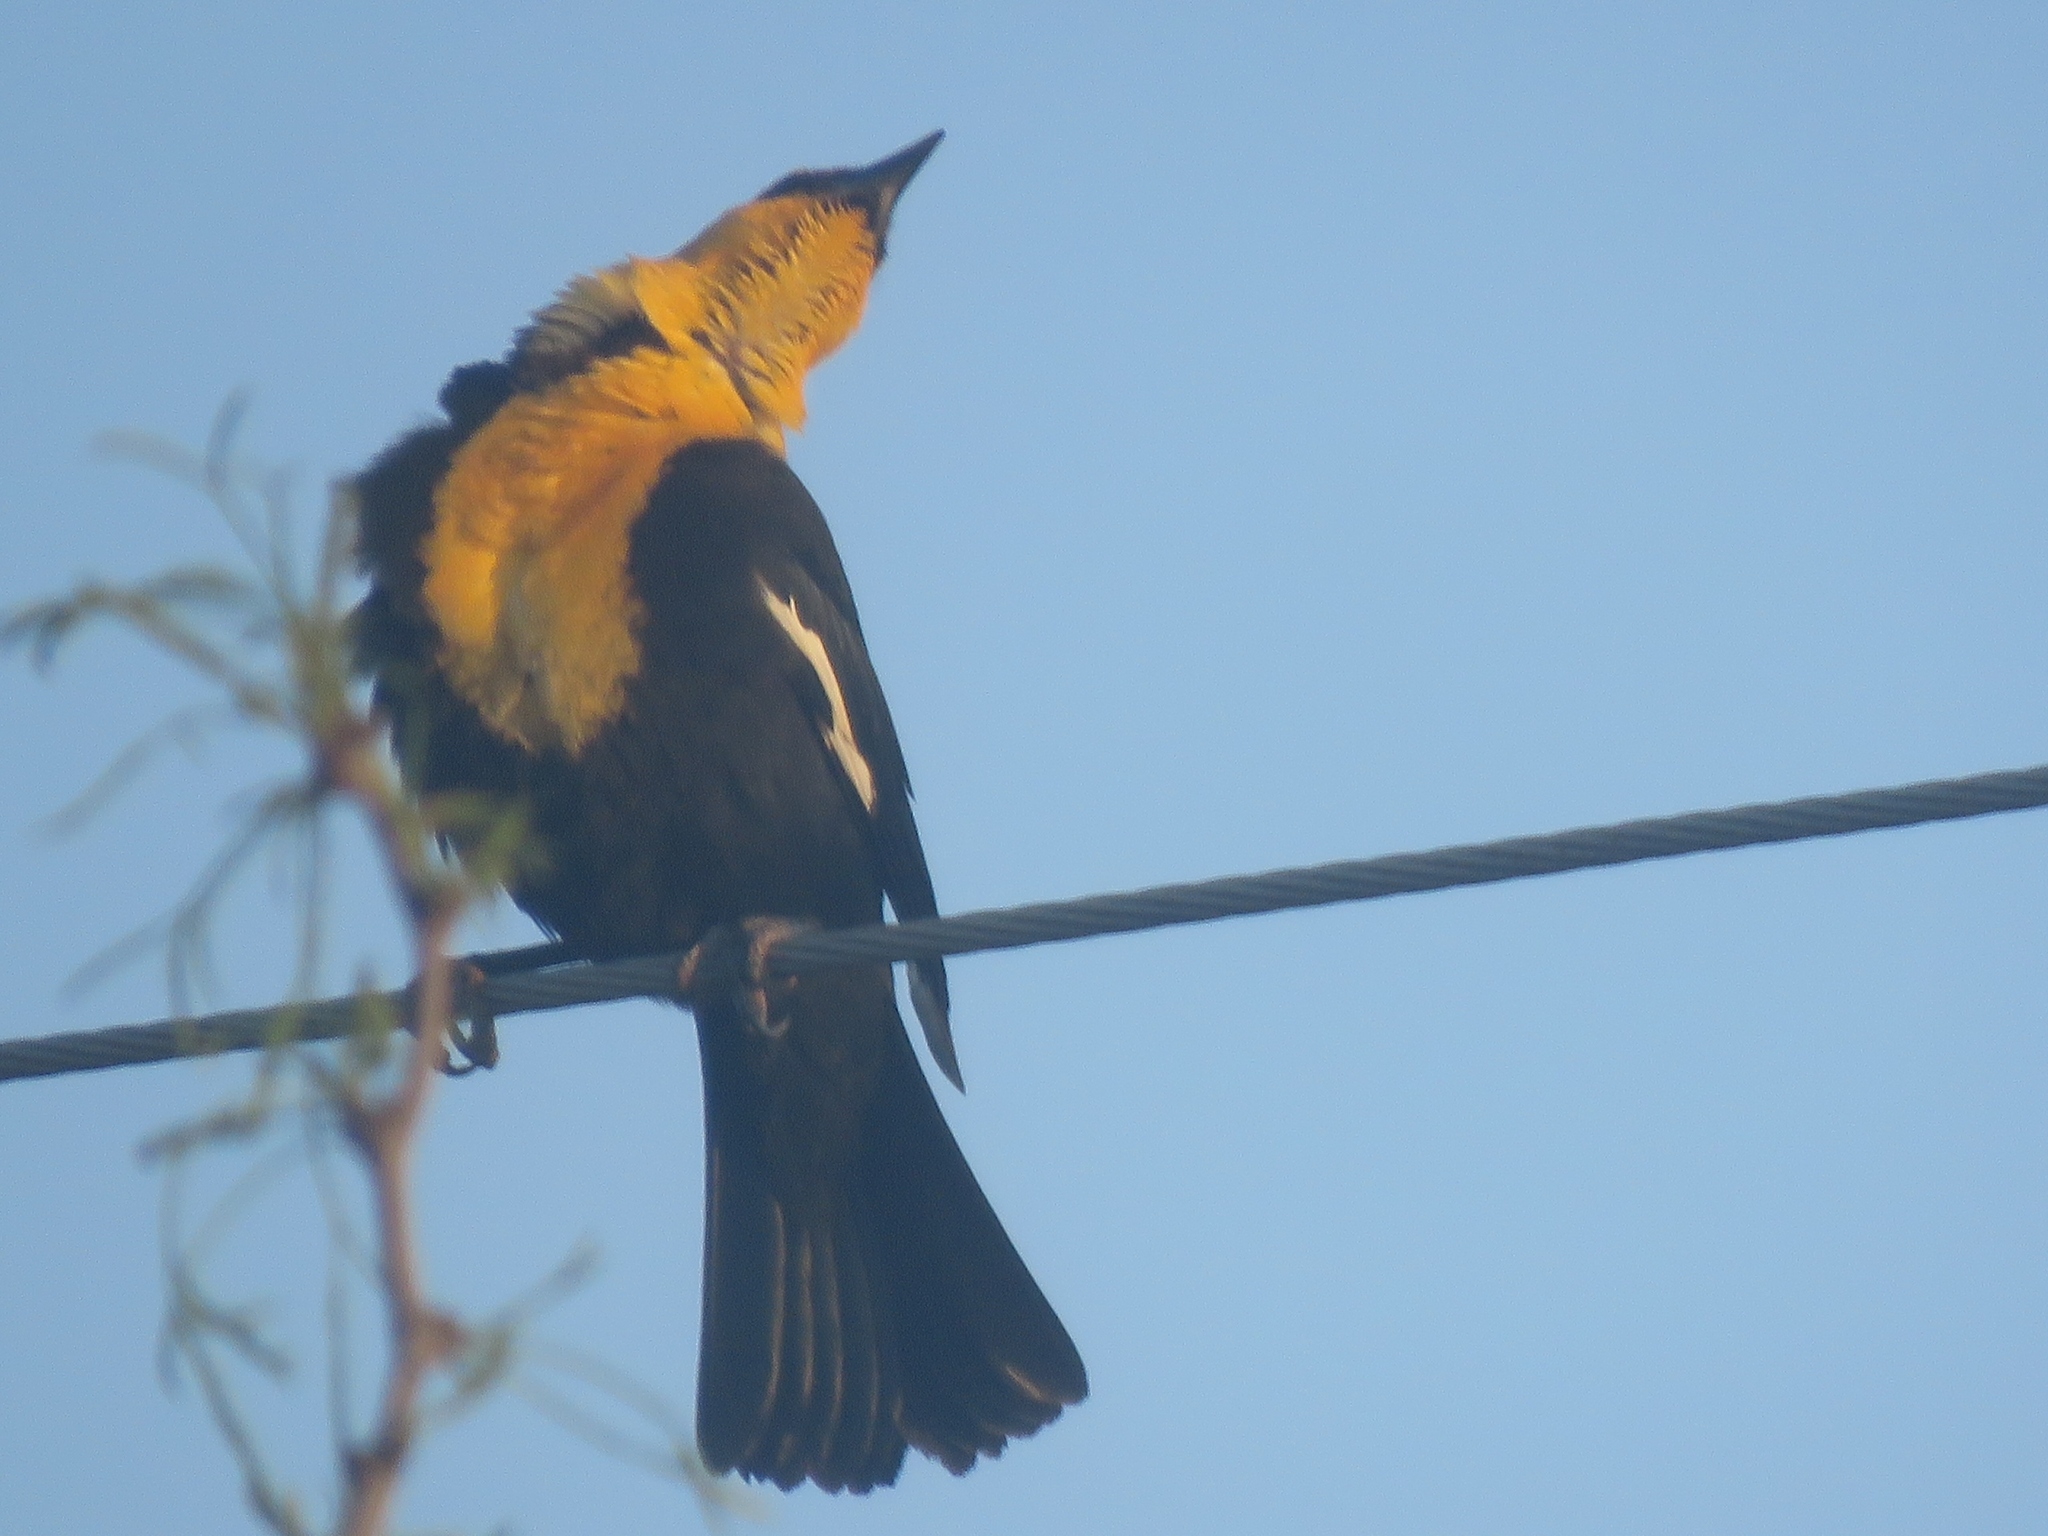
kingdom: Animalia
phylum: Chordata
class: Aves
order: Passeriformes
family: Icteridae
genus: Xanthocephalus
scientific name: Xanthocephalus xanthocephalus
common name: Yellow-headed blackbird
